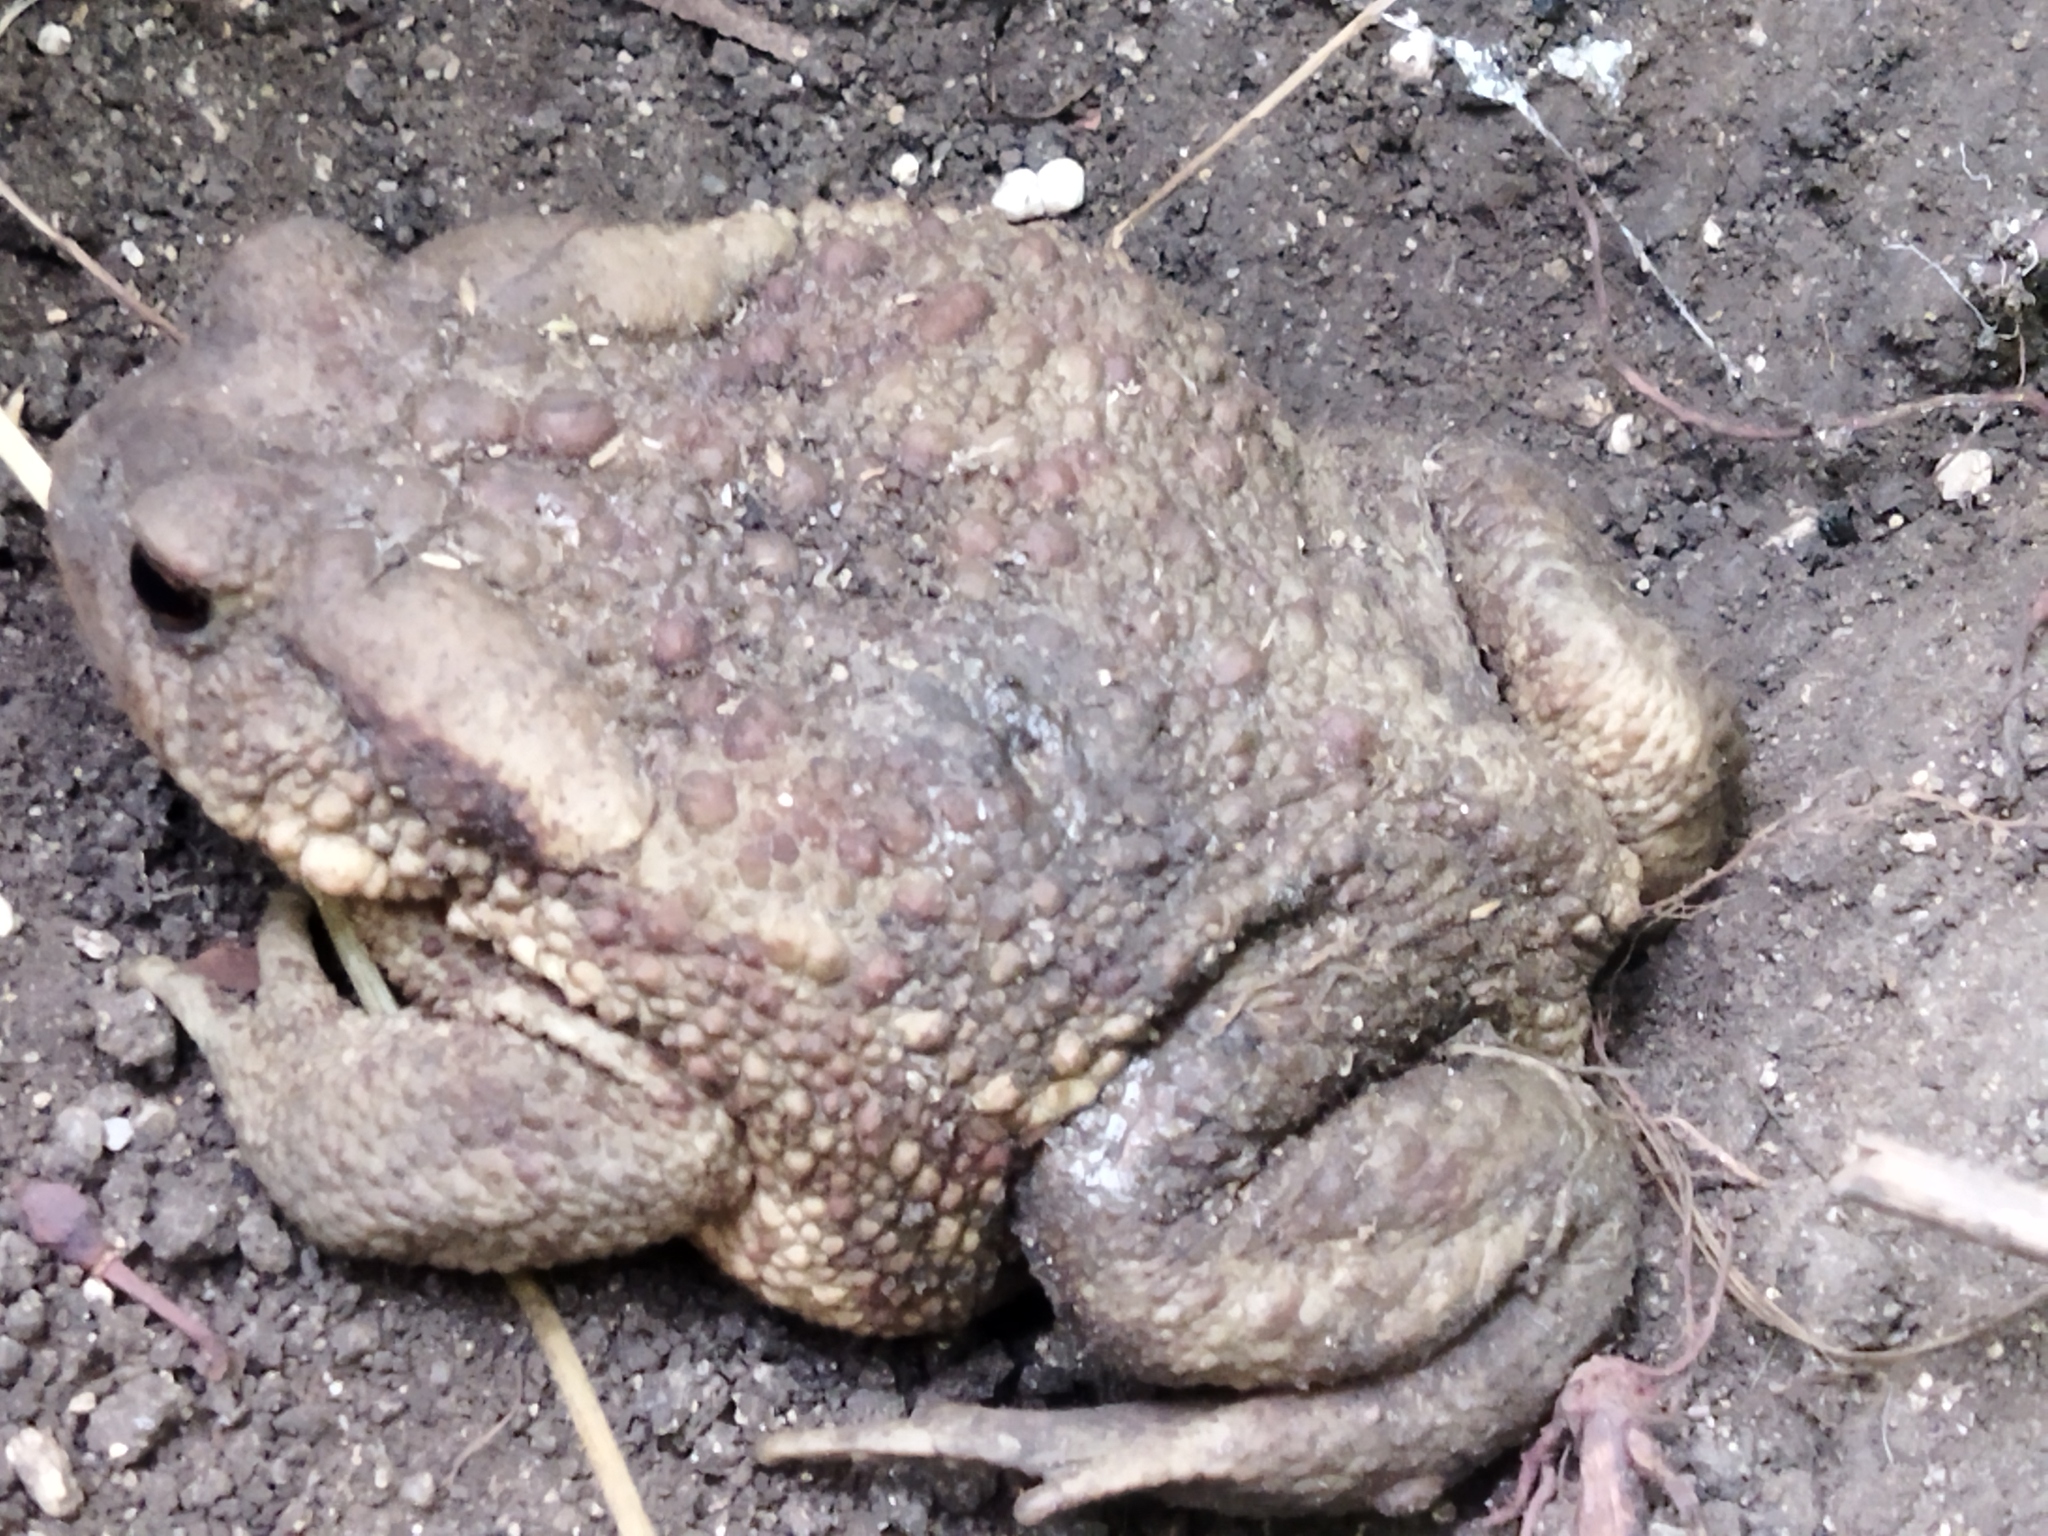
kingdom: Animalia
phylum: Chordata
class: Amphibia
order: Anura
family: Bufonidae
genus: Bufo
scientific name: Bufo bufo
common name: Common toad
